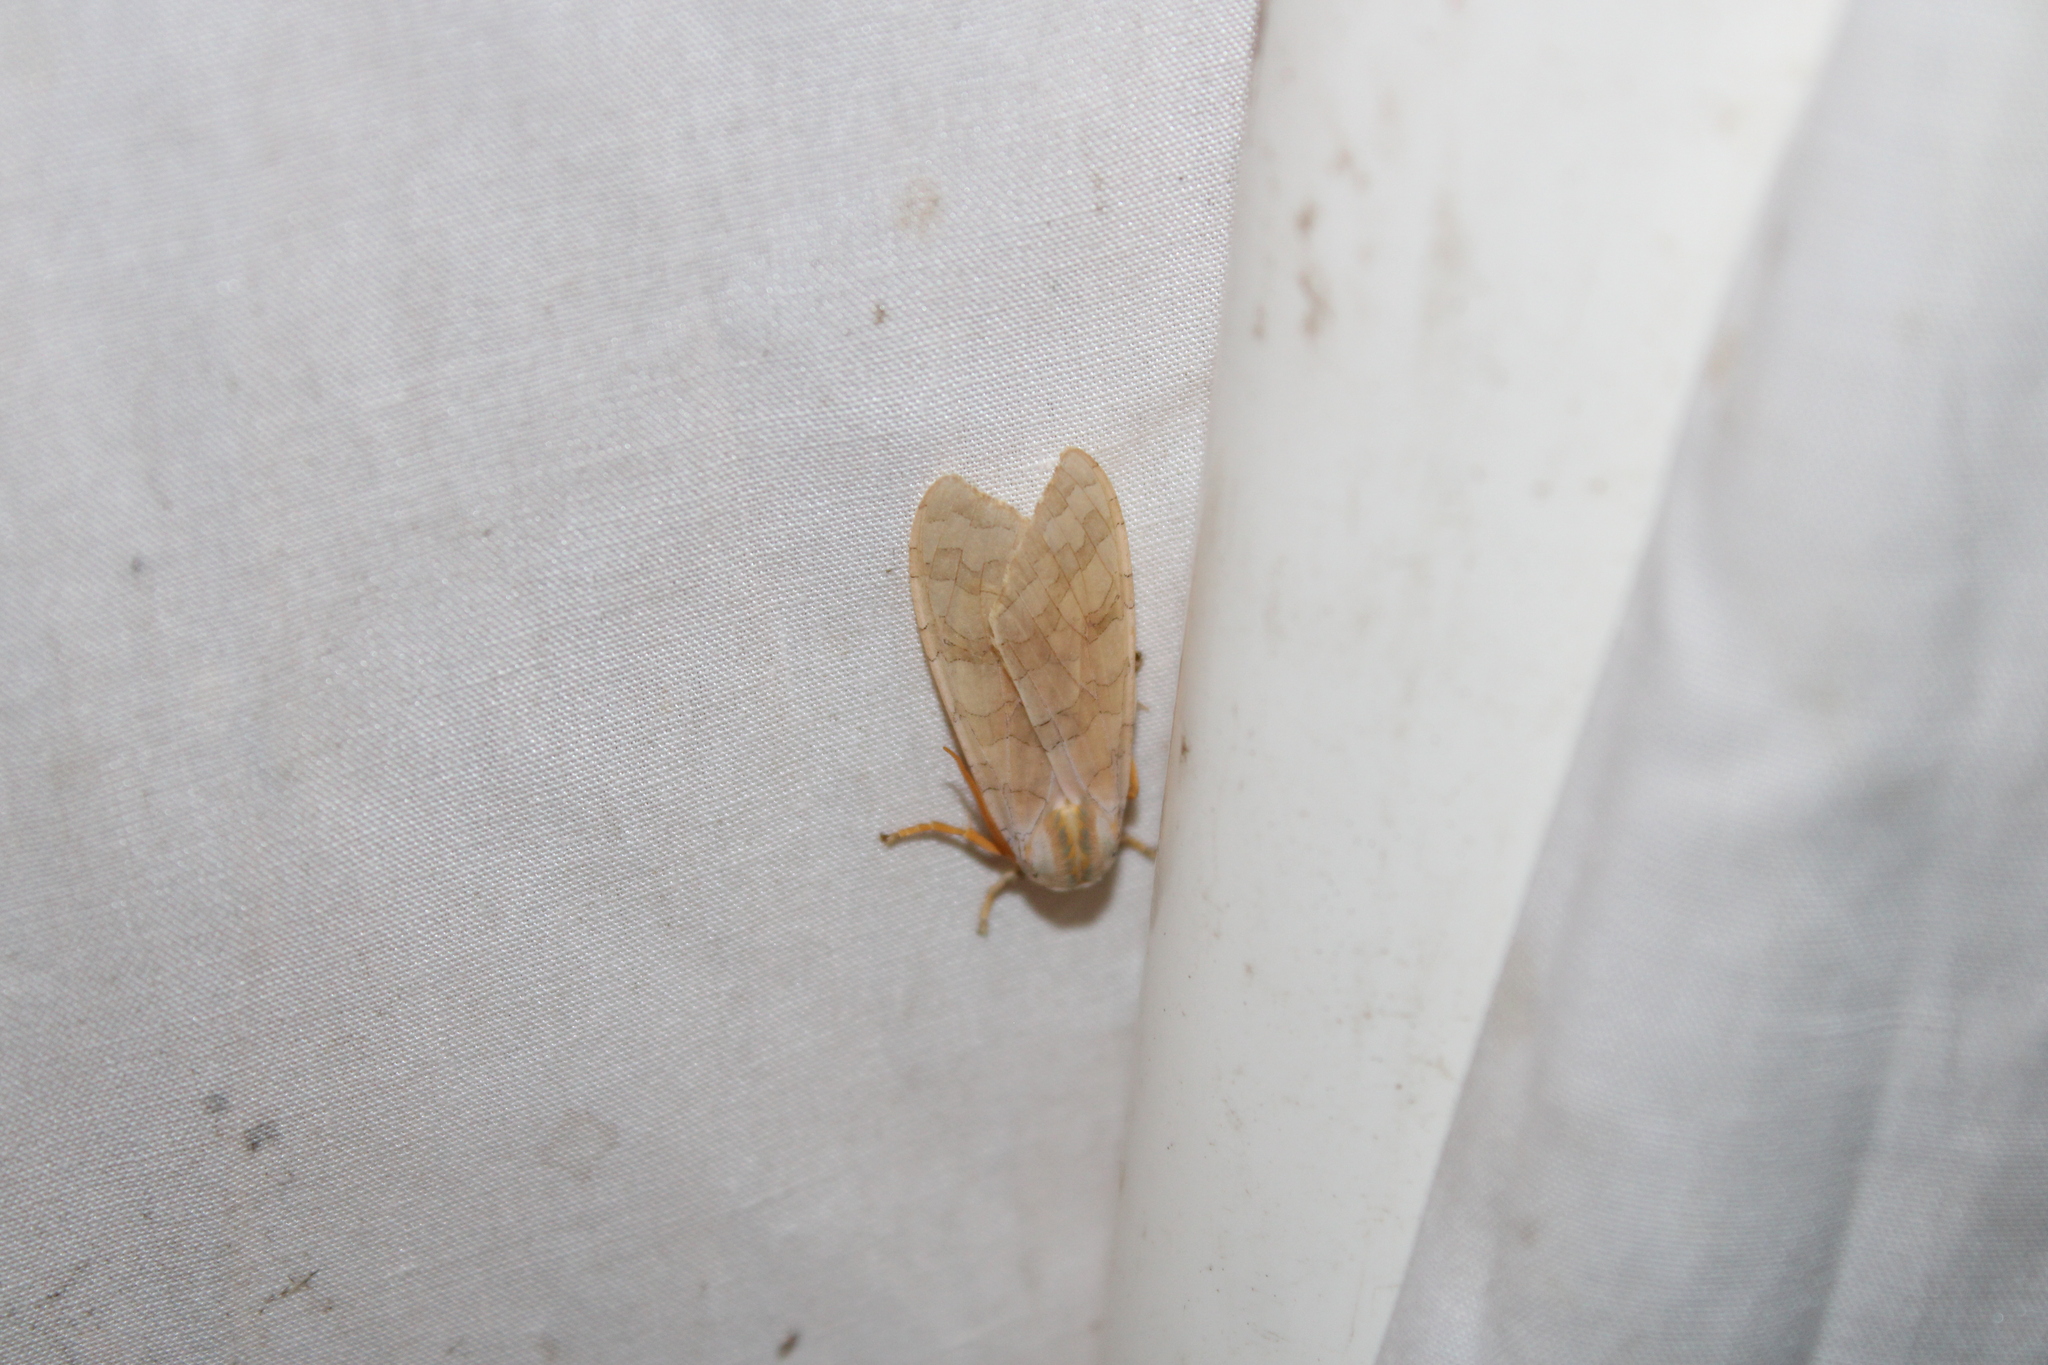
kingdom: Animalia
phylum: Arthropoda
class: Insecta
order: Lepidoptera
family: Erebidae
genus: Halysidota
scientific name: Halysidota
